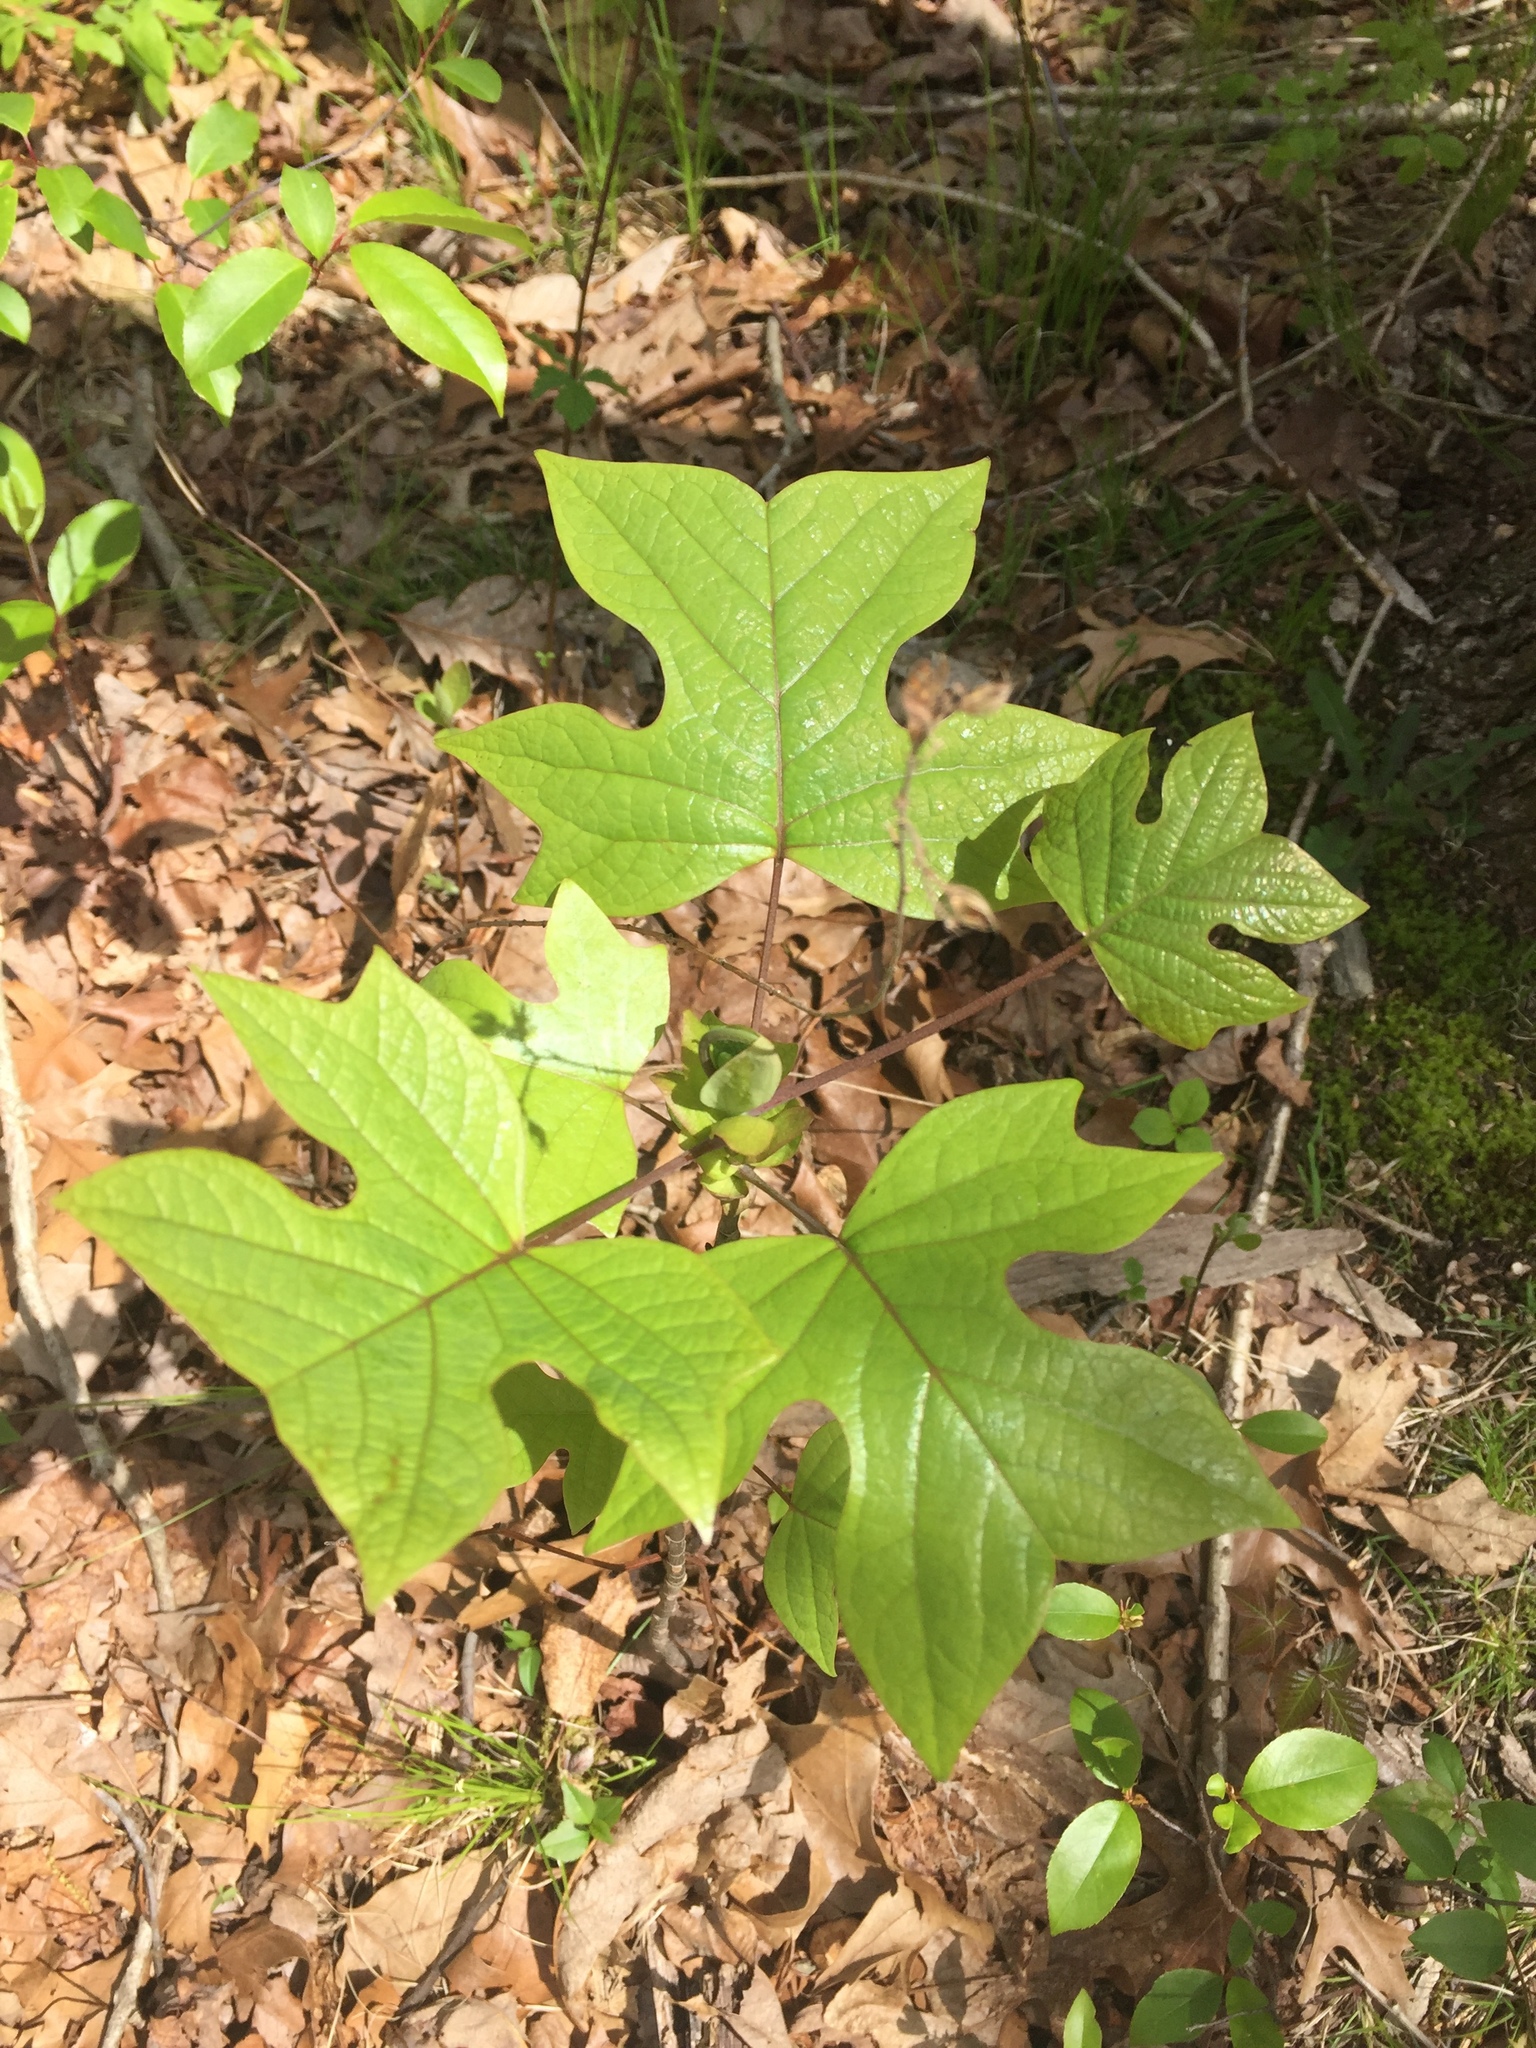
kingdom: Plantae
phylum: Tracheophyta
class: Magnoliopsida
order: Magnoliales
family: Magnoliaceae
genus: Liriodendron
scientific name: Liriodendron tulipifera
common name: Tulip tree
